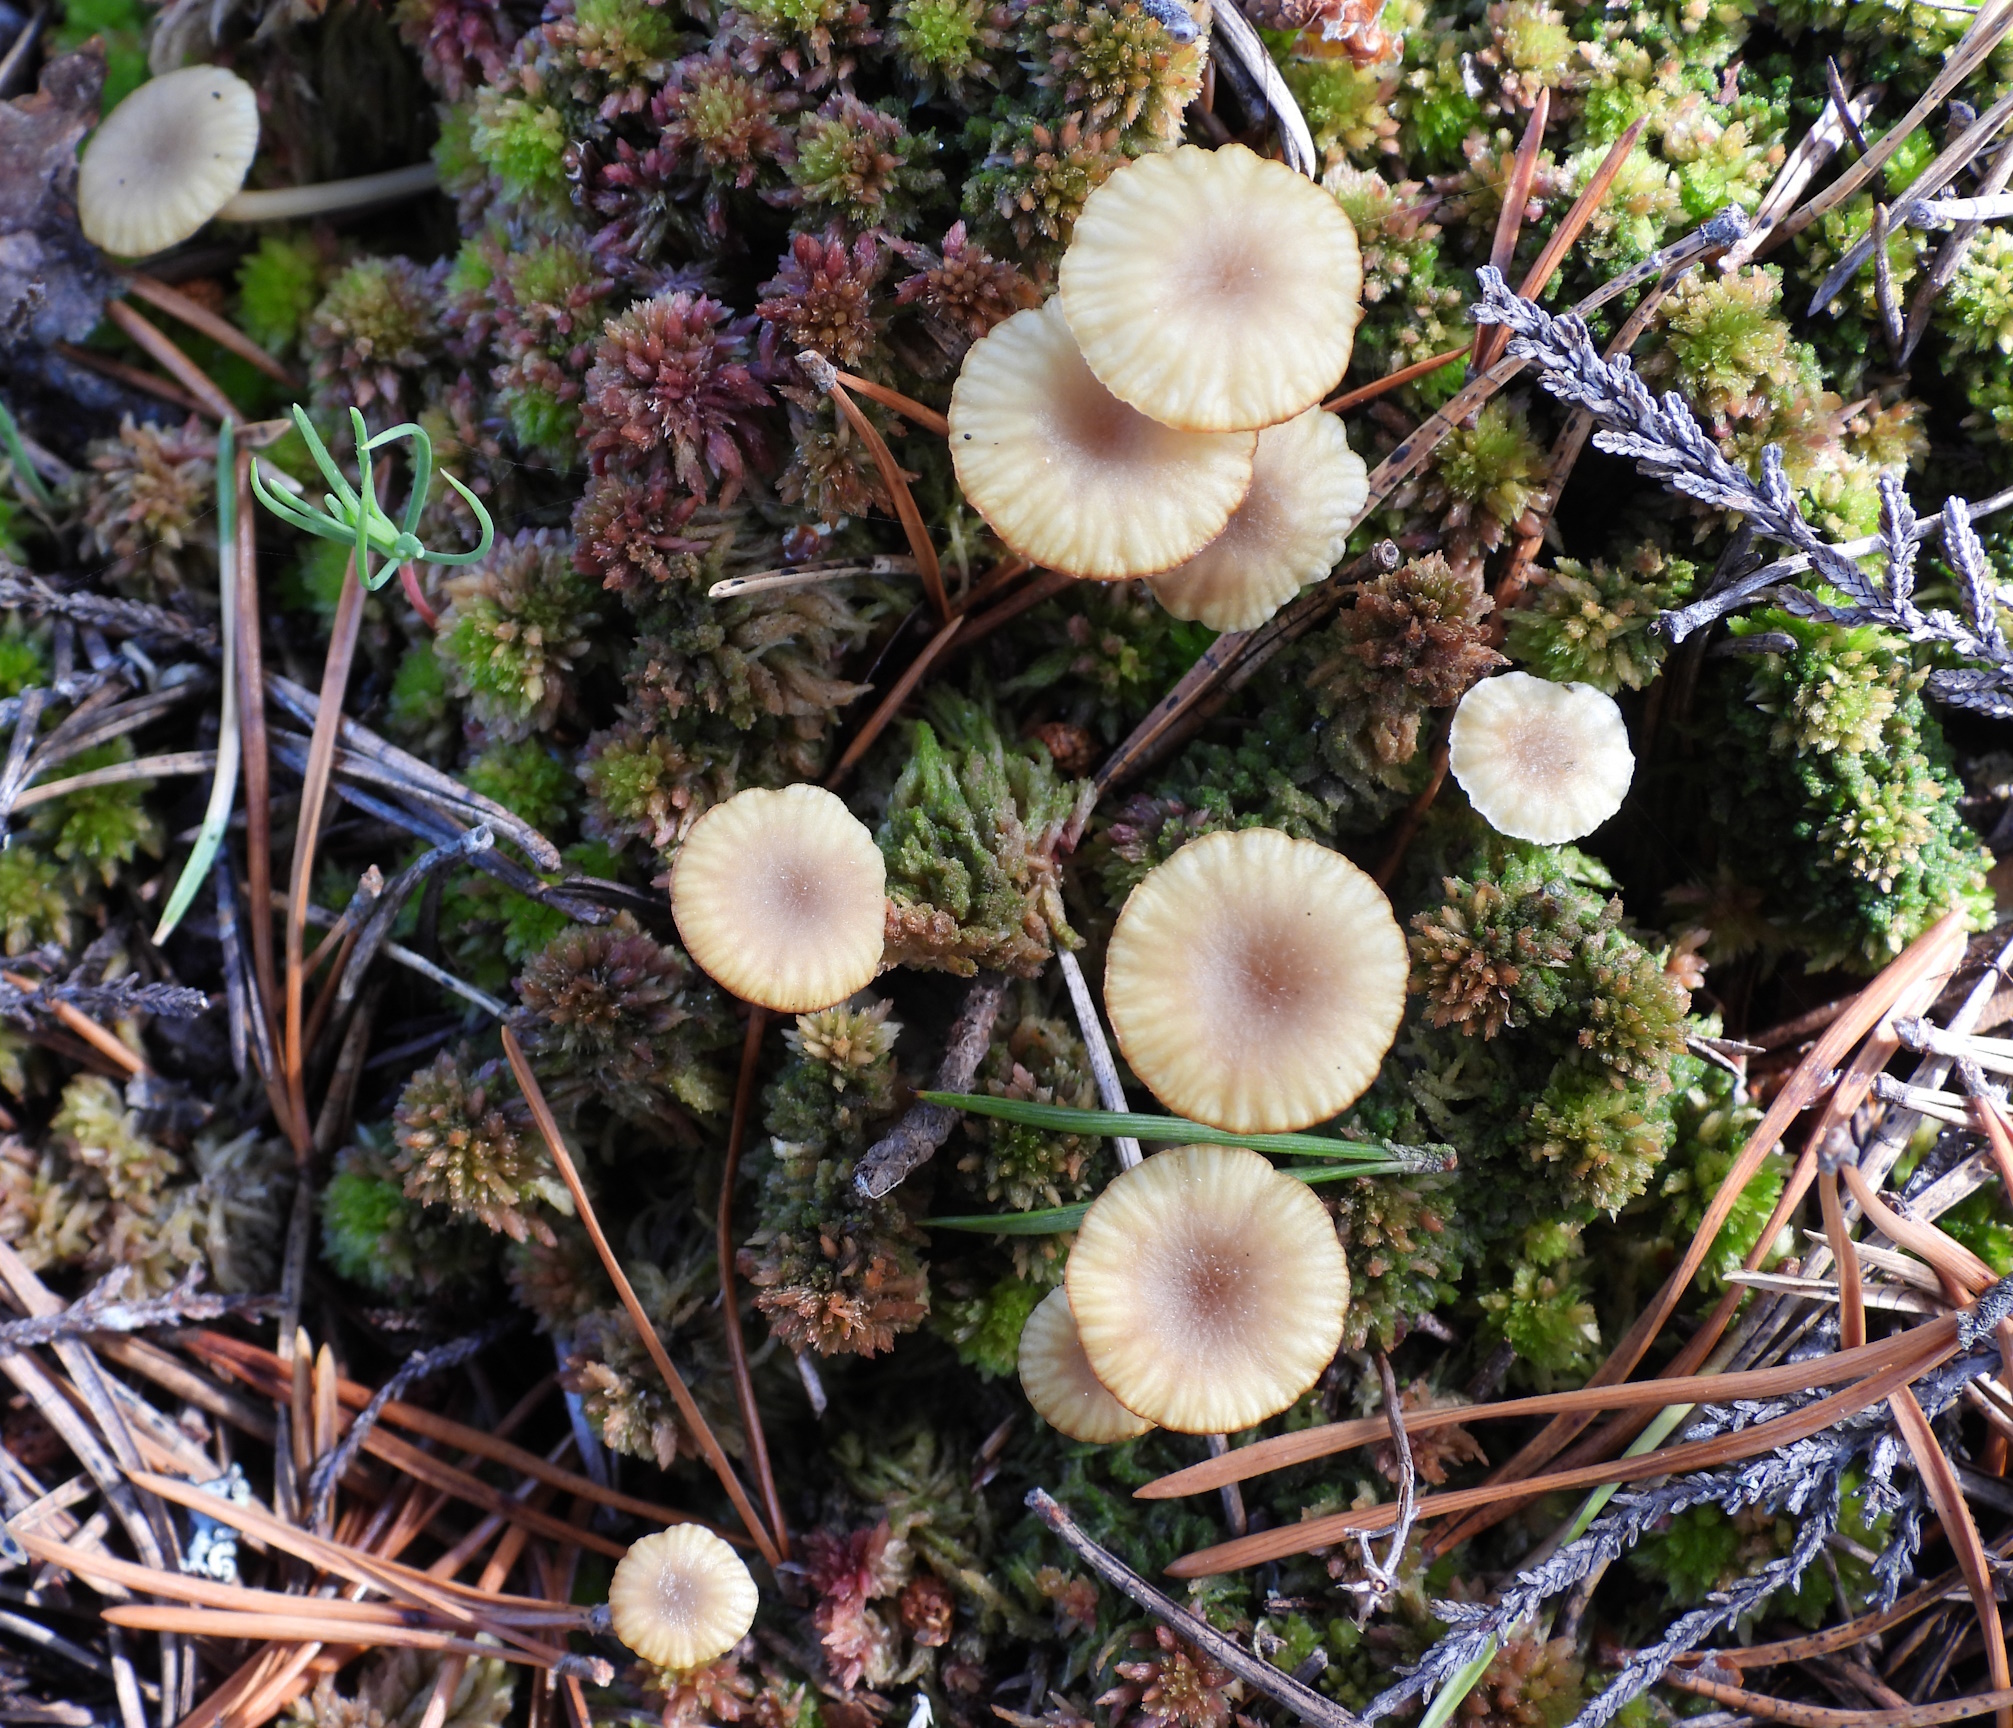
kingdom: Fungi
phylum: Basidiomycota
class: Agaricomycetes
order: Agaricales
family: Hygrophoraceae
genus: Lichenomphalia
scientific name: Lichenomphalia
